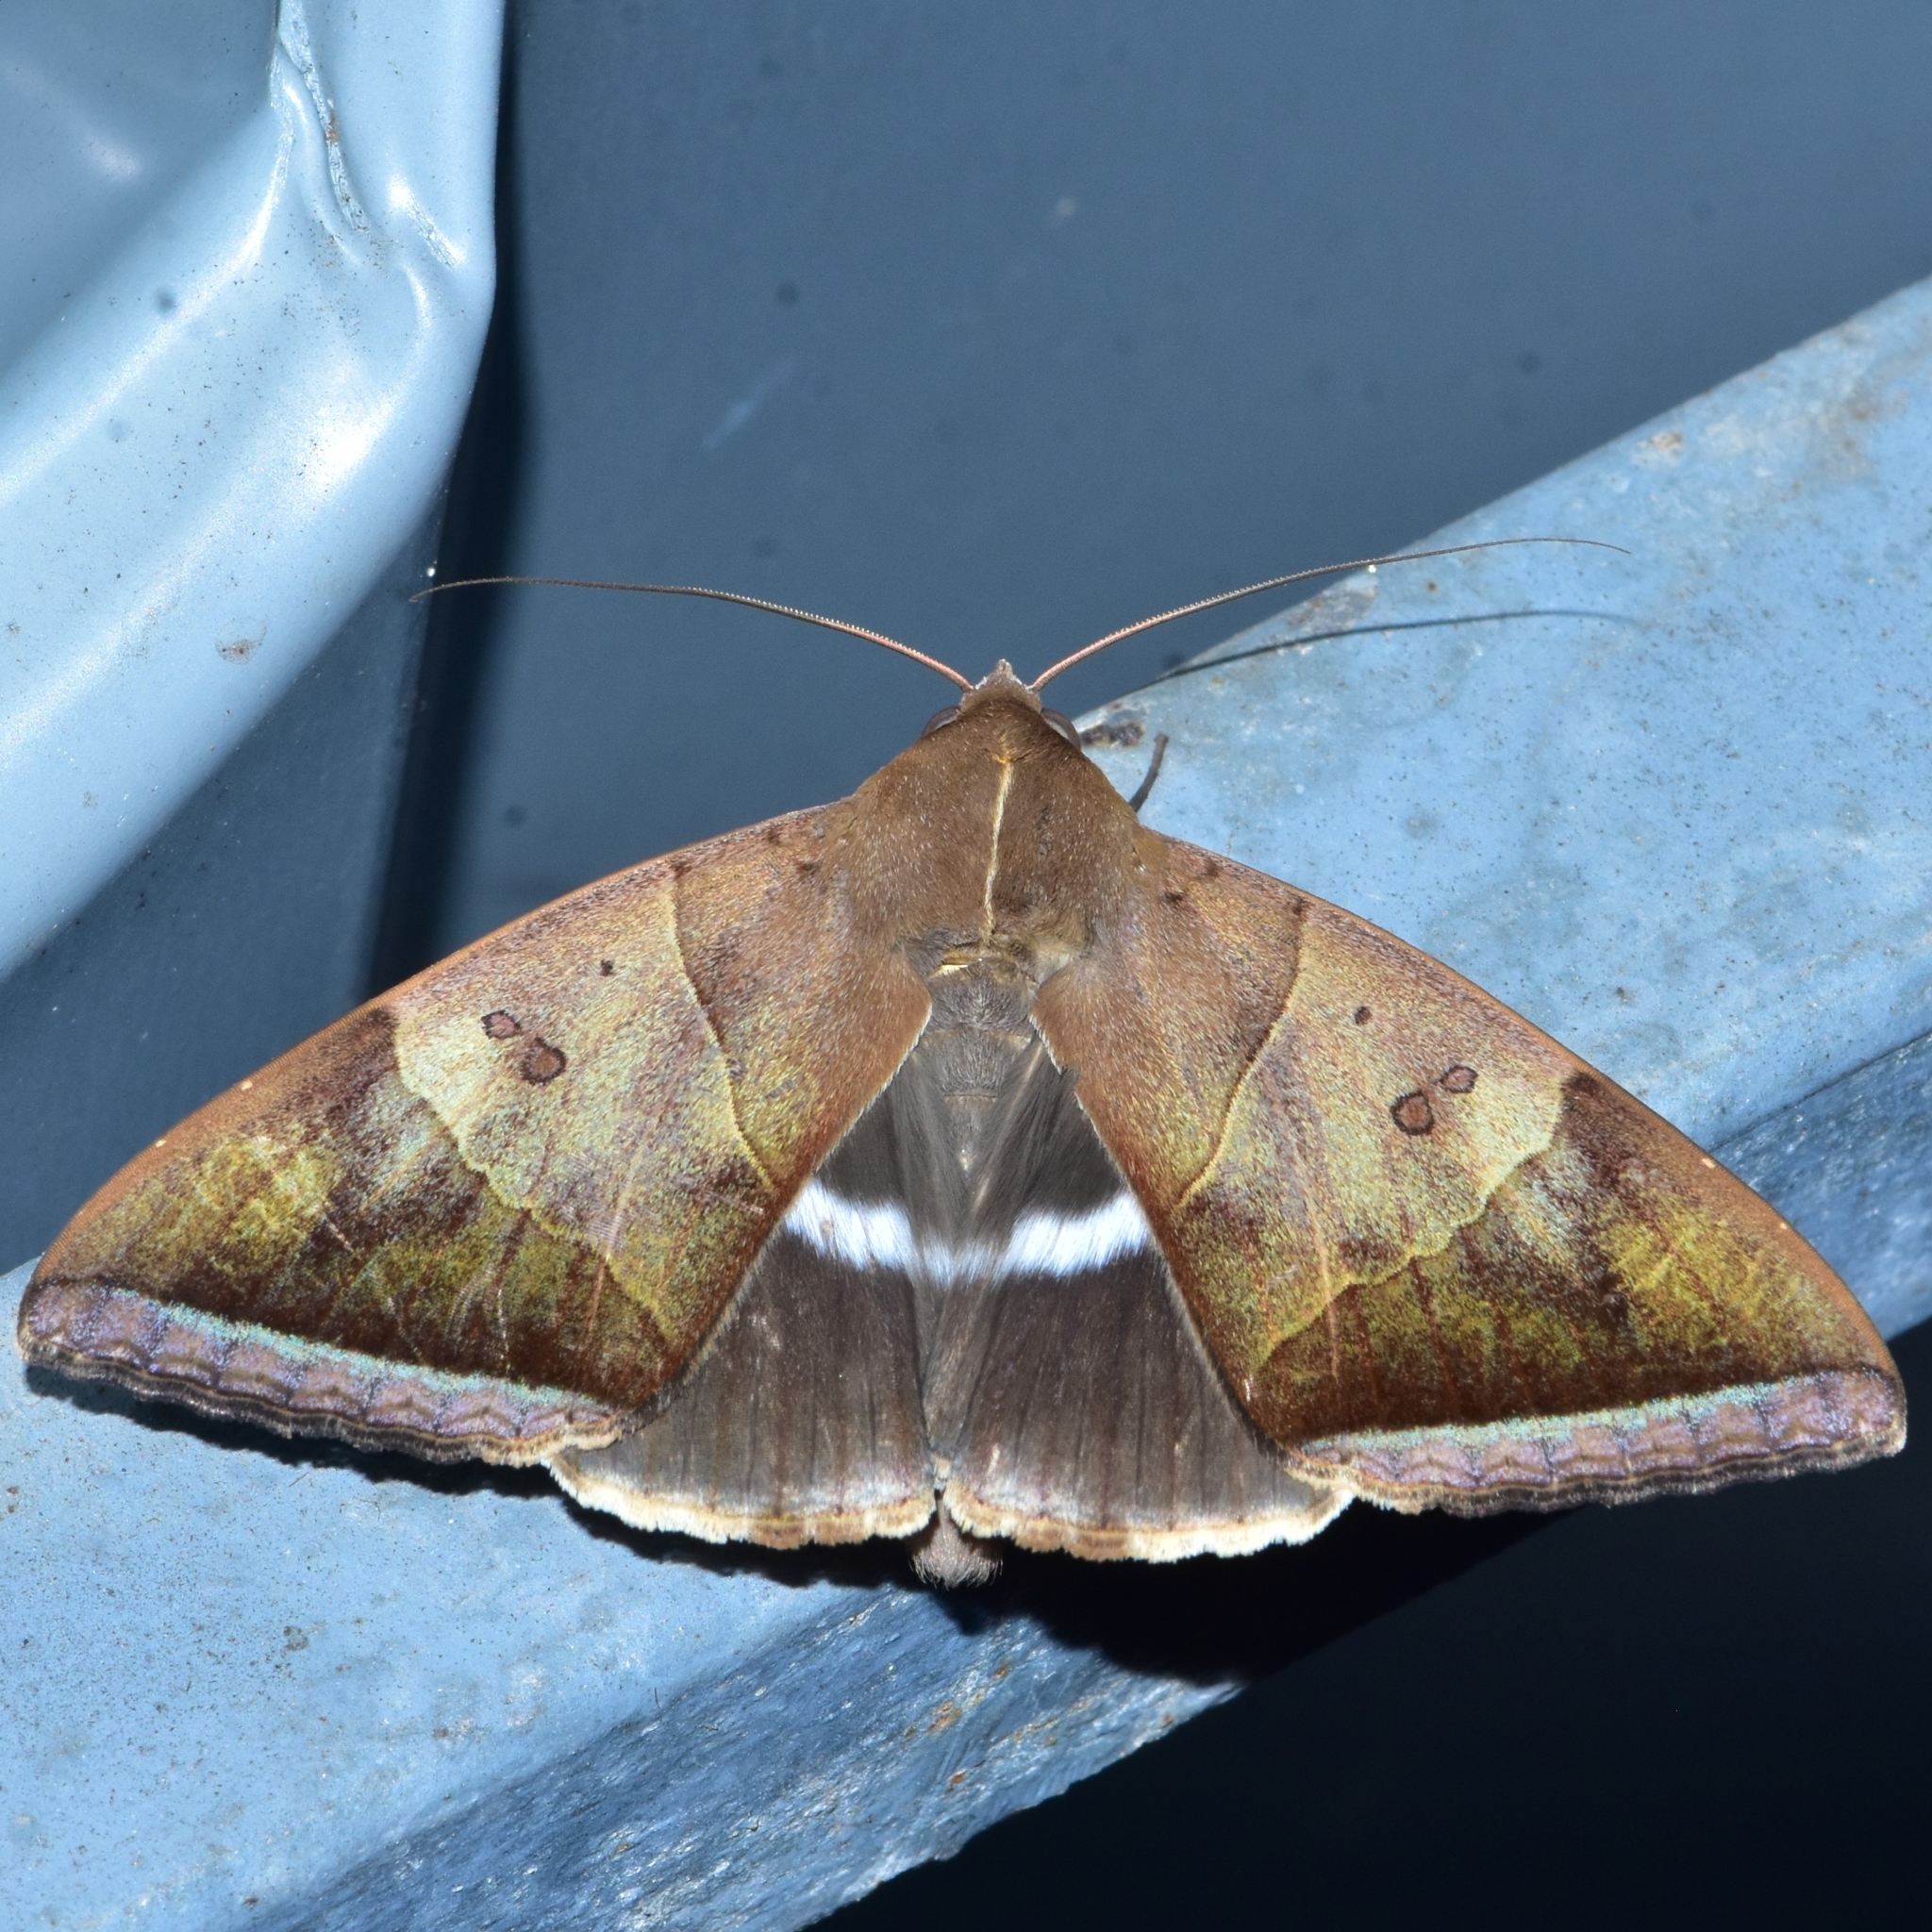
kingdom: Animalia
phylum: Arthropoda
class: Insecta
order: Lepidoptera
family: Erebidae
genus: Artena
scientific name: Artena dotata
